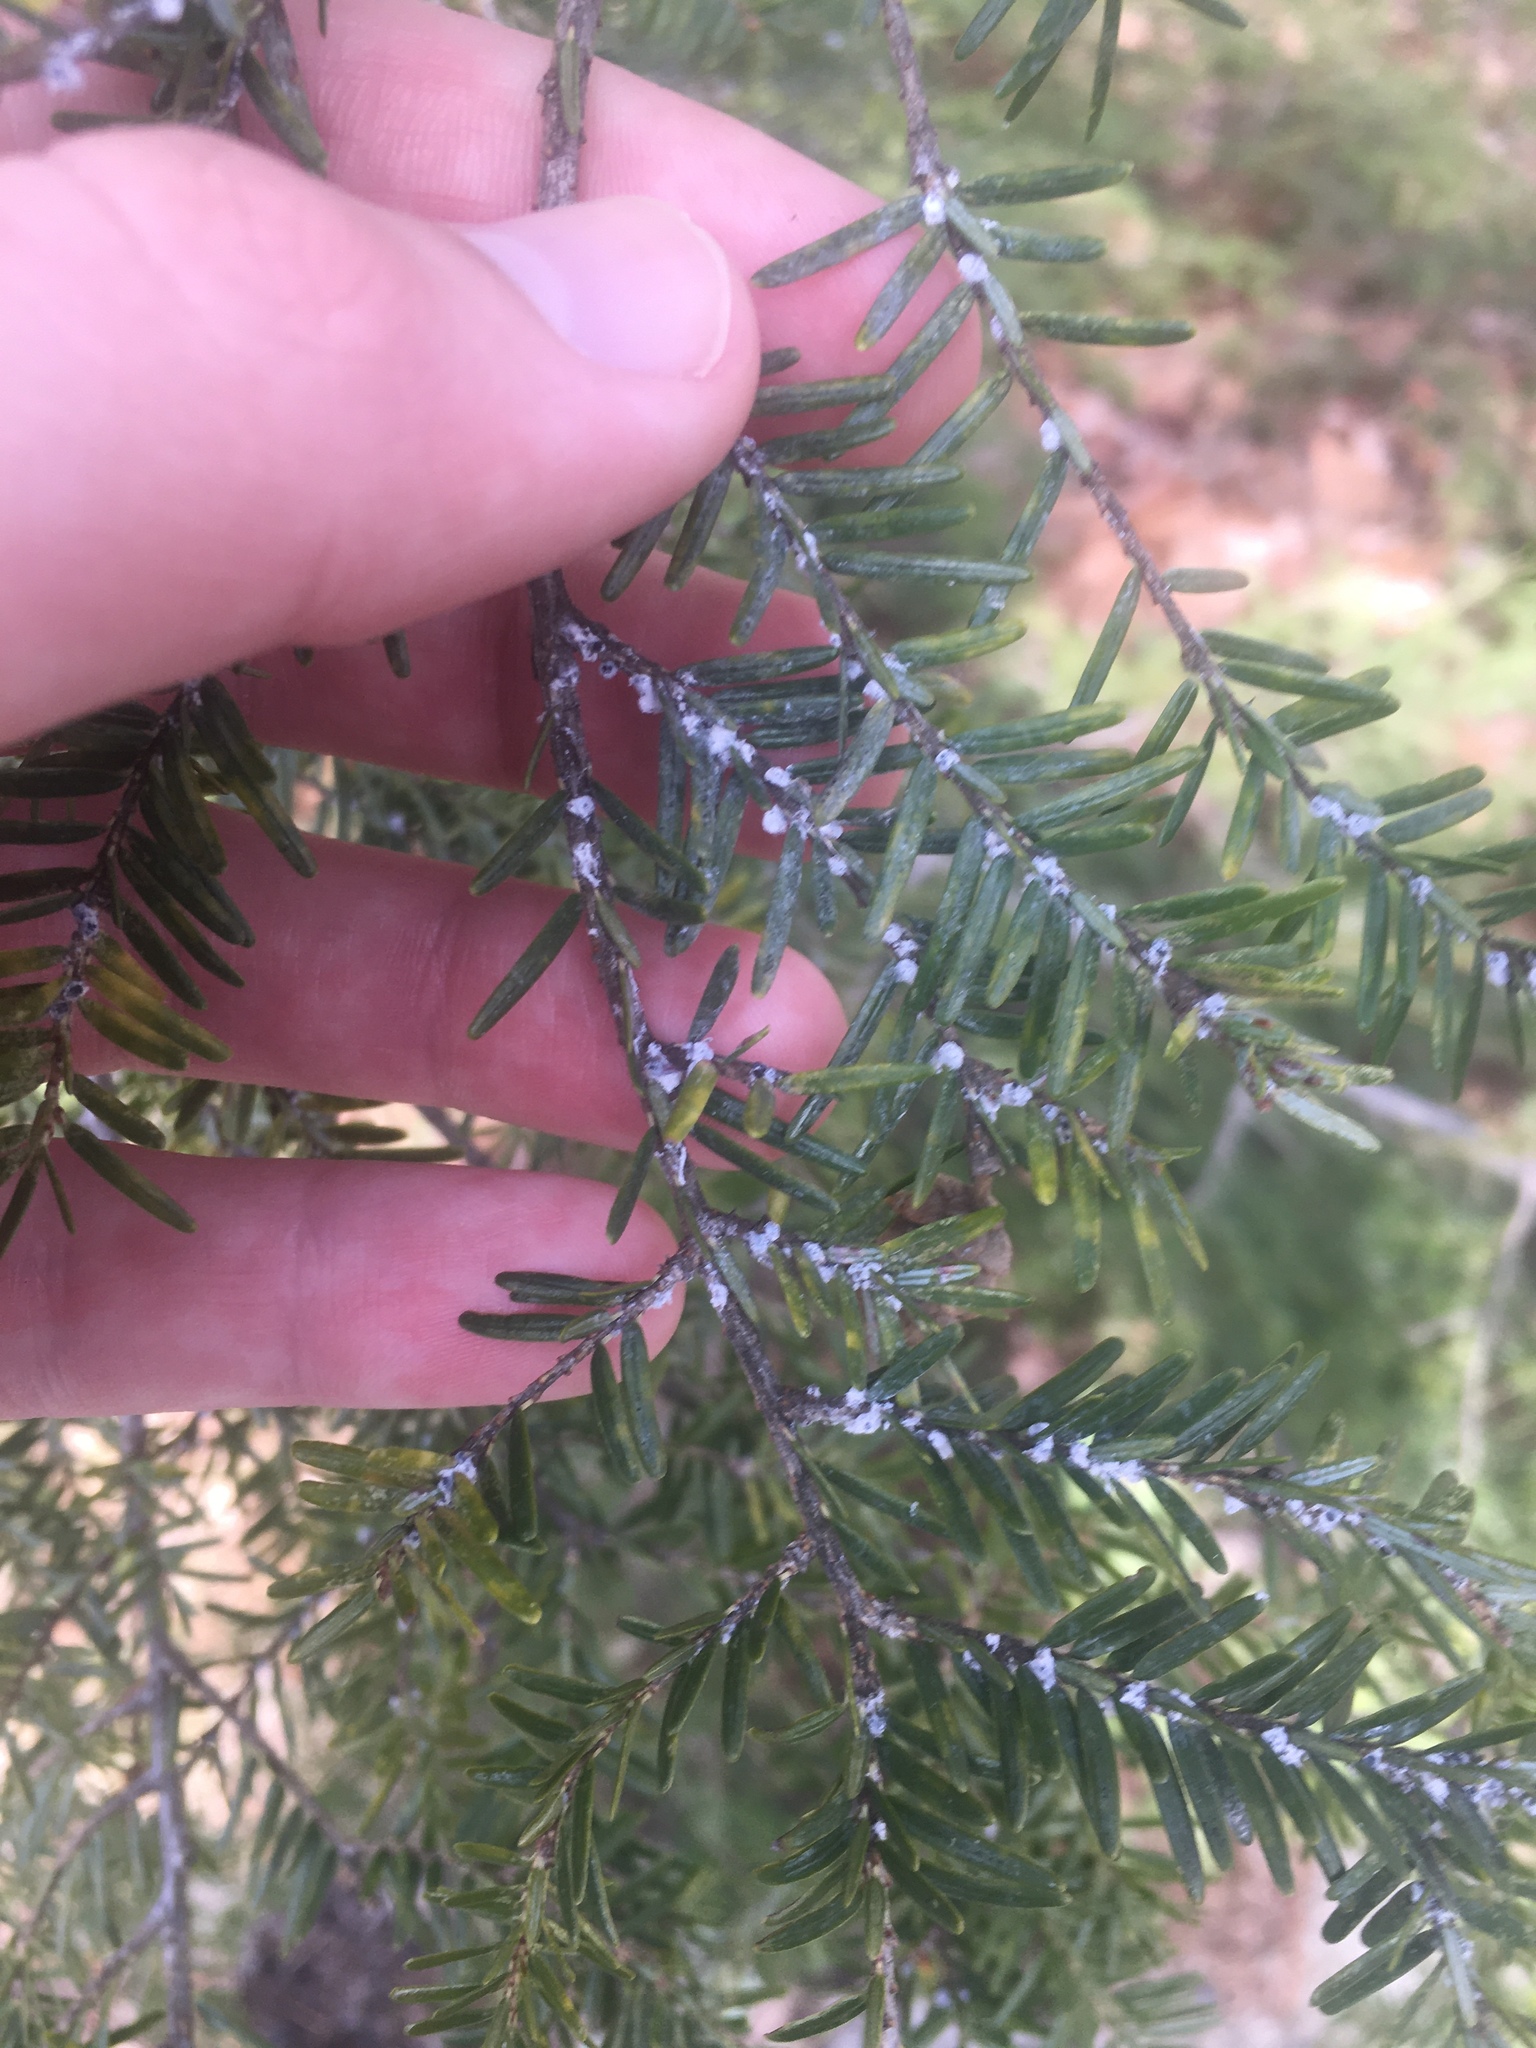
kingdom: Animalia
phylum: Arthropoda
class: Insecta
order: Hemiptera
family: Adelgidae
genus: Adelges
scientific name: Adelges tsugae
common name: Hemlock woolly adelgid
